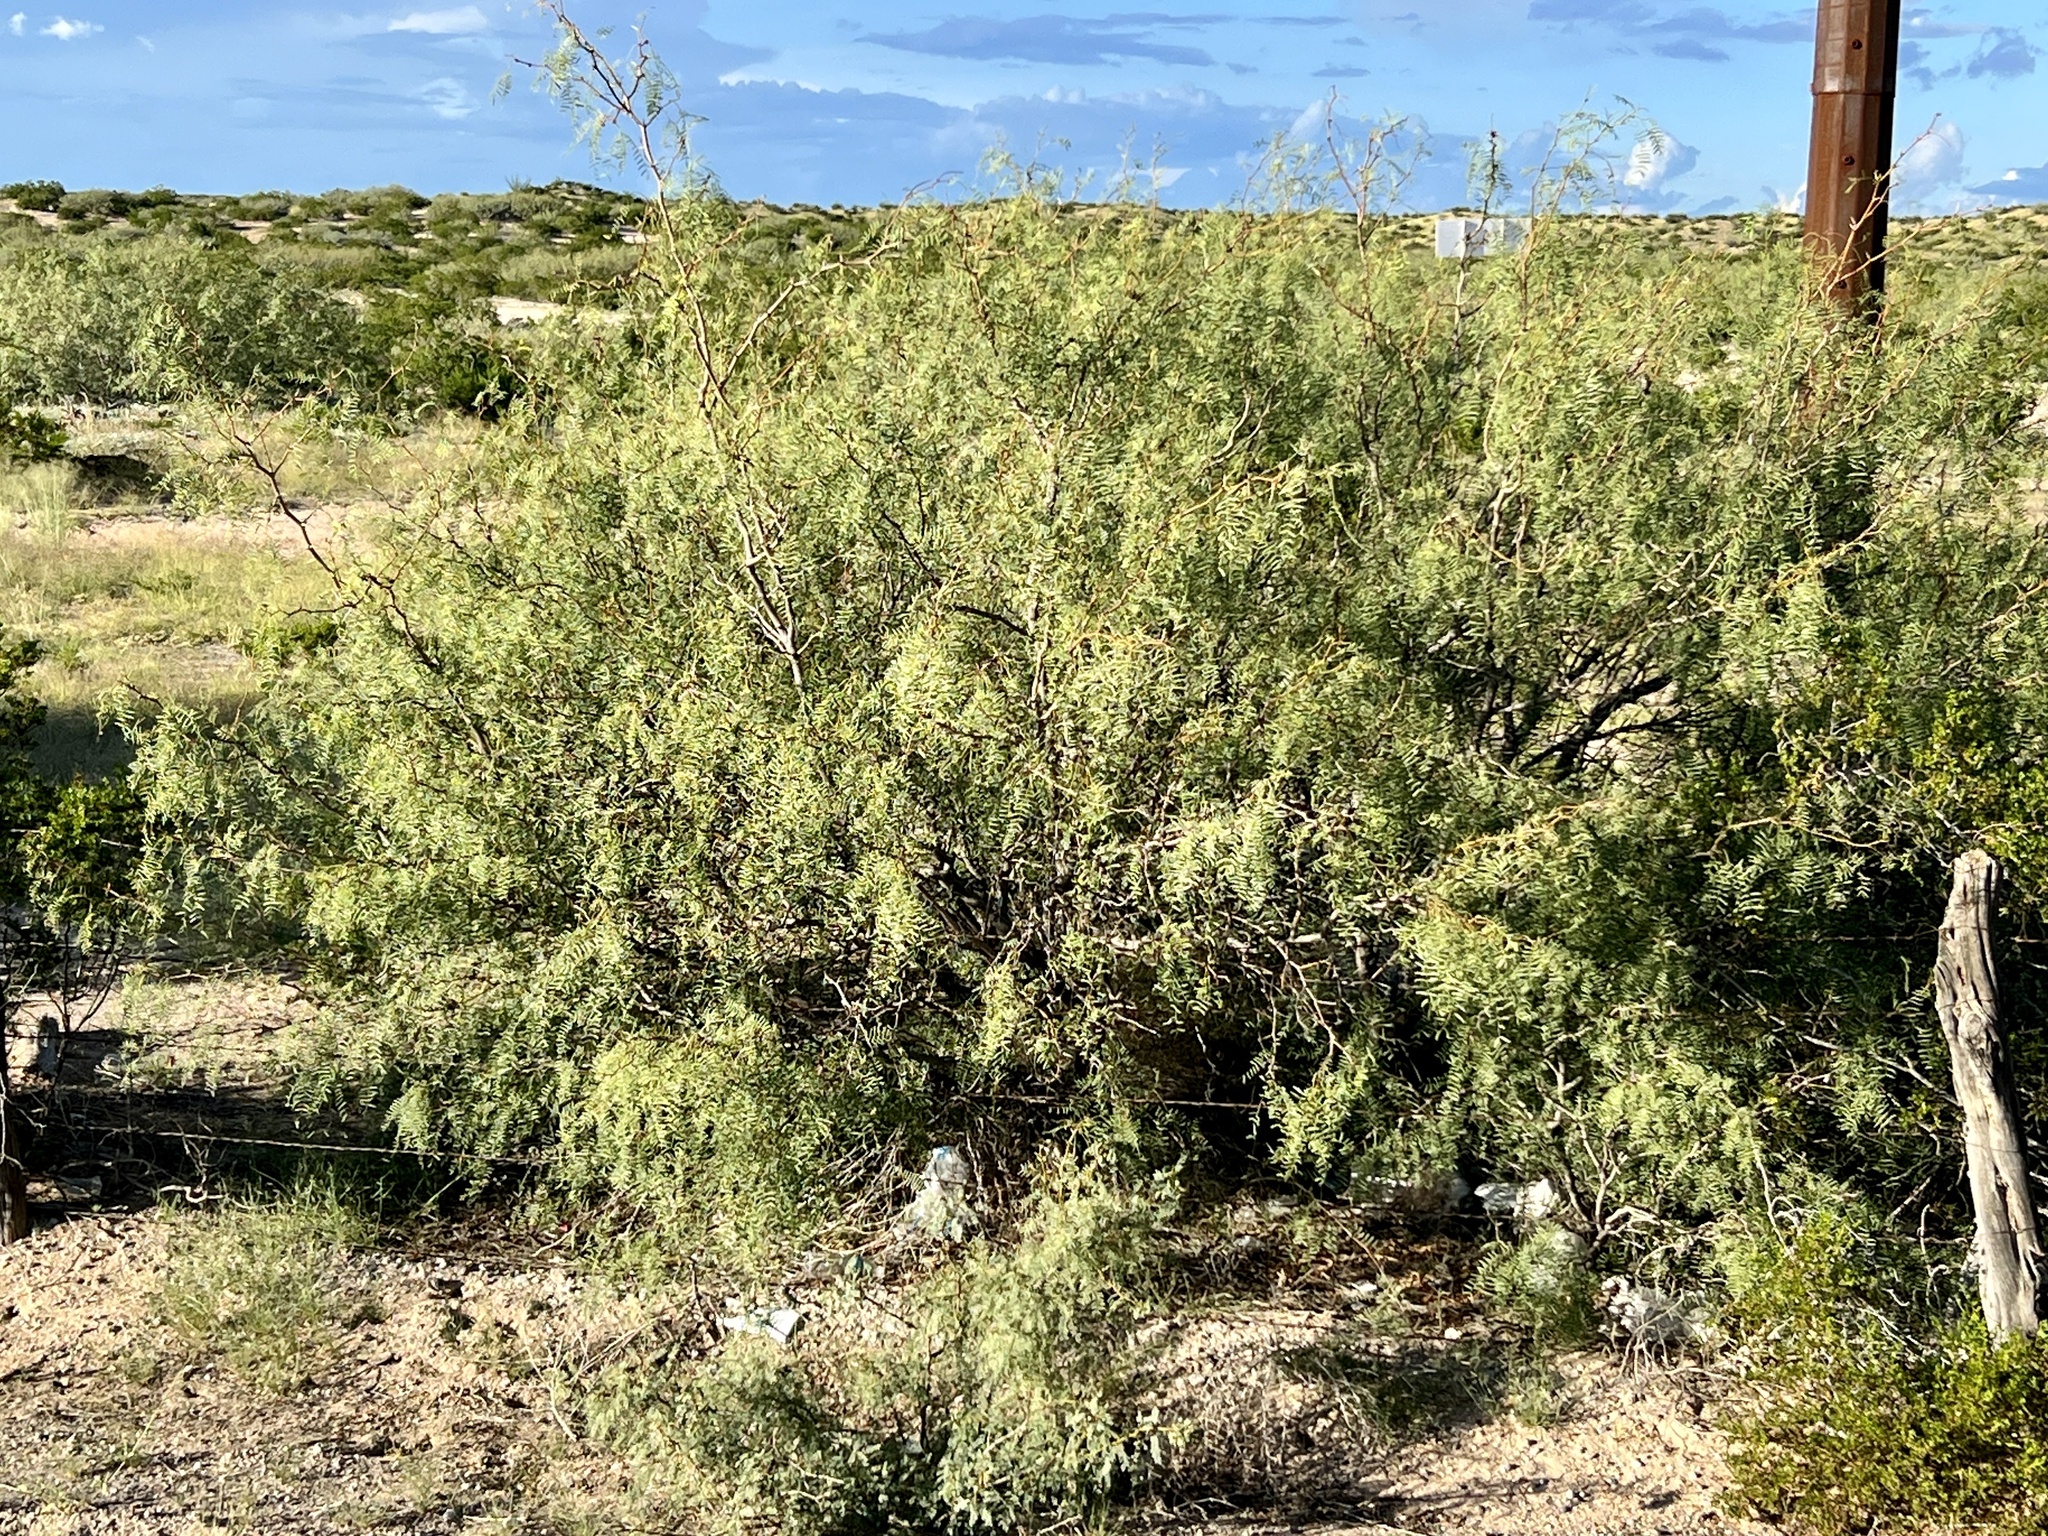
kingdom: Plantae
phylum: Tracheophyta
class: Magnoliopsida
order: Fabales
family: Fabaceae
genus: Prosopis
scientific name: Prosopis glandulosa
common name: Honey mesquite
